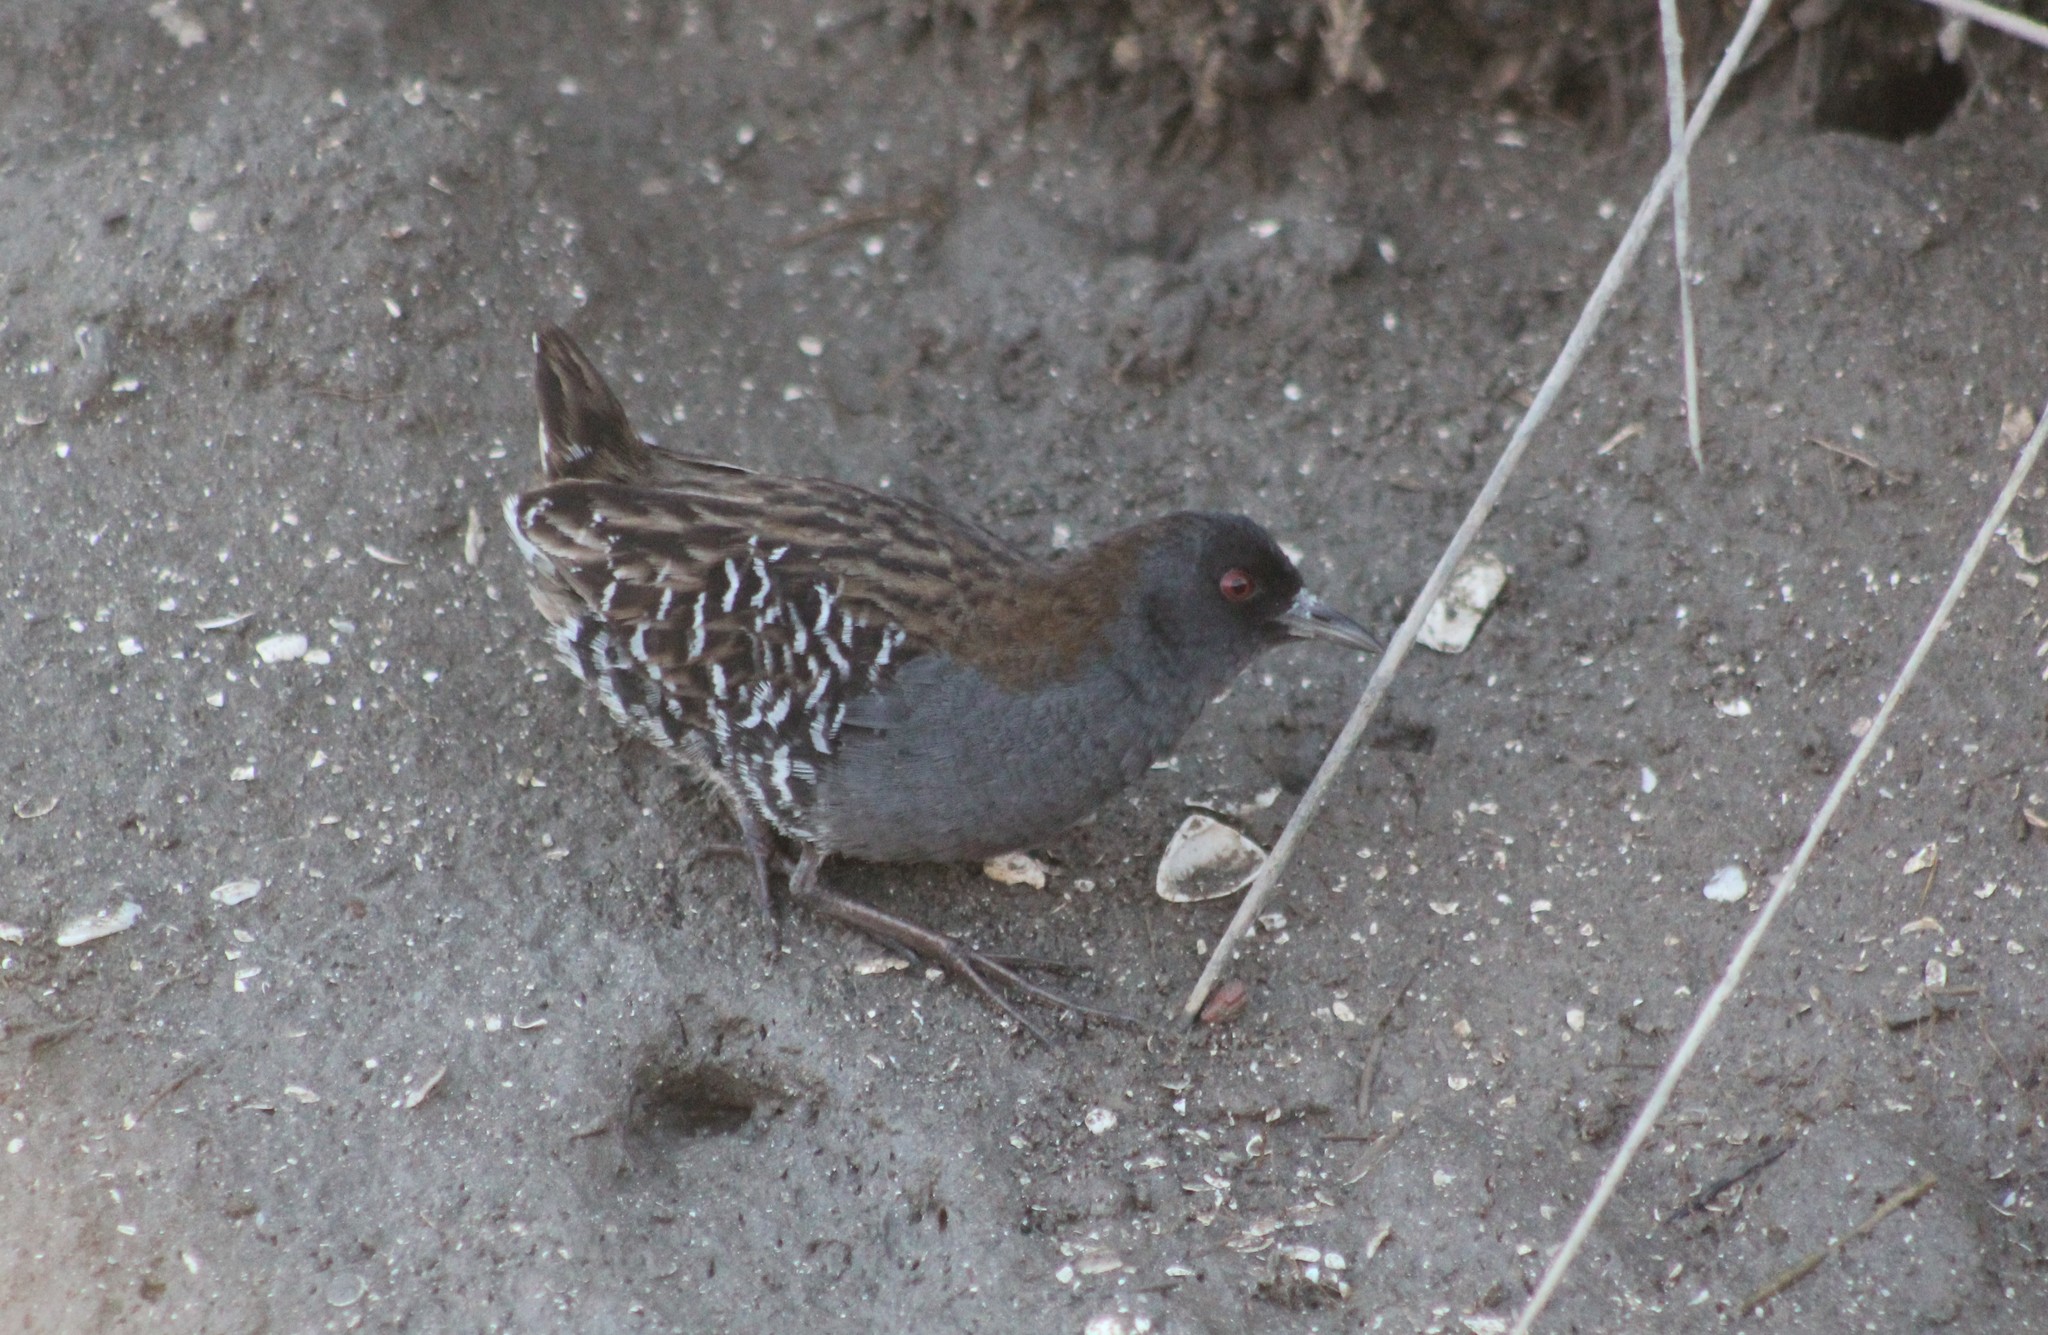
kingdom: Animalia
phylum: Chordata
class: Aves
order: Gruiformes
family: Rallidae
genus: Porzana
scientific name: Porzana spiloptera
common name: Dot-winged crake
